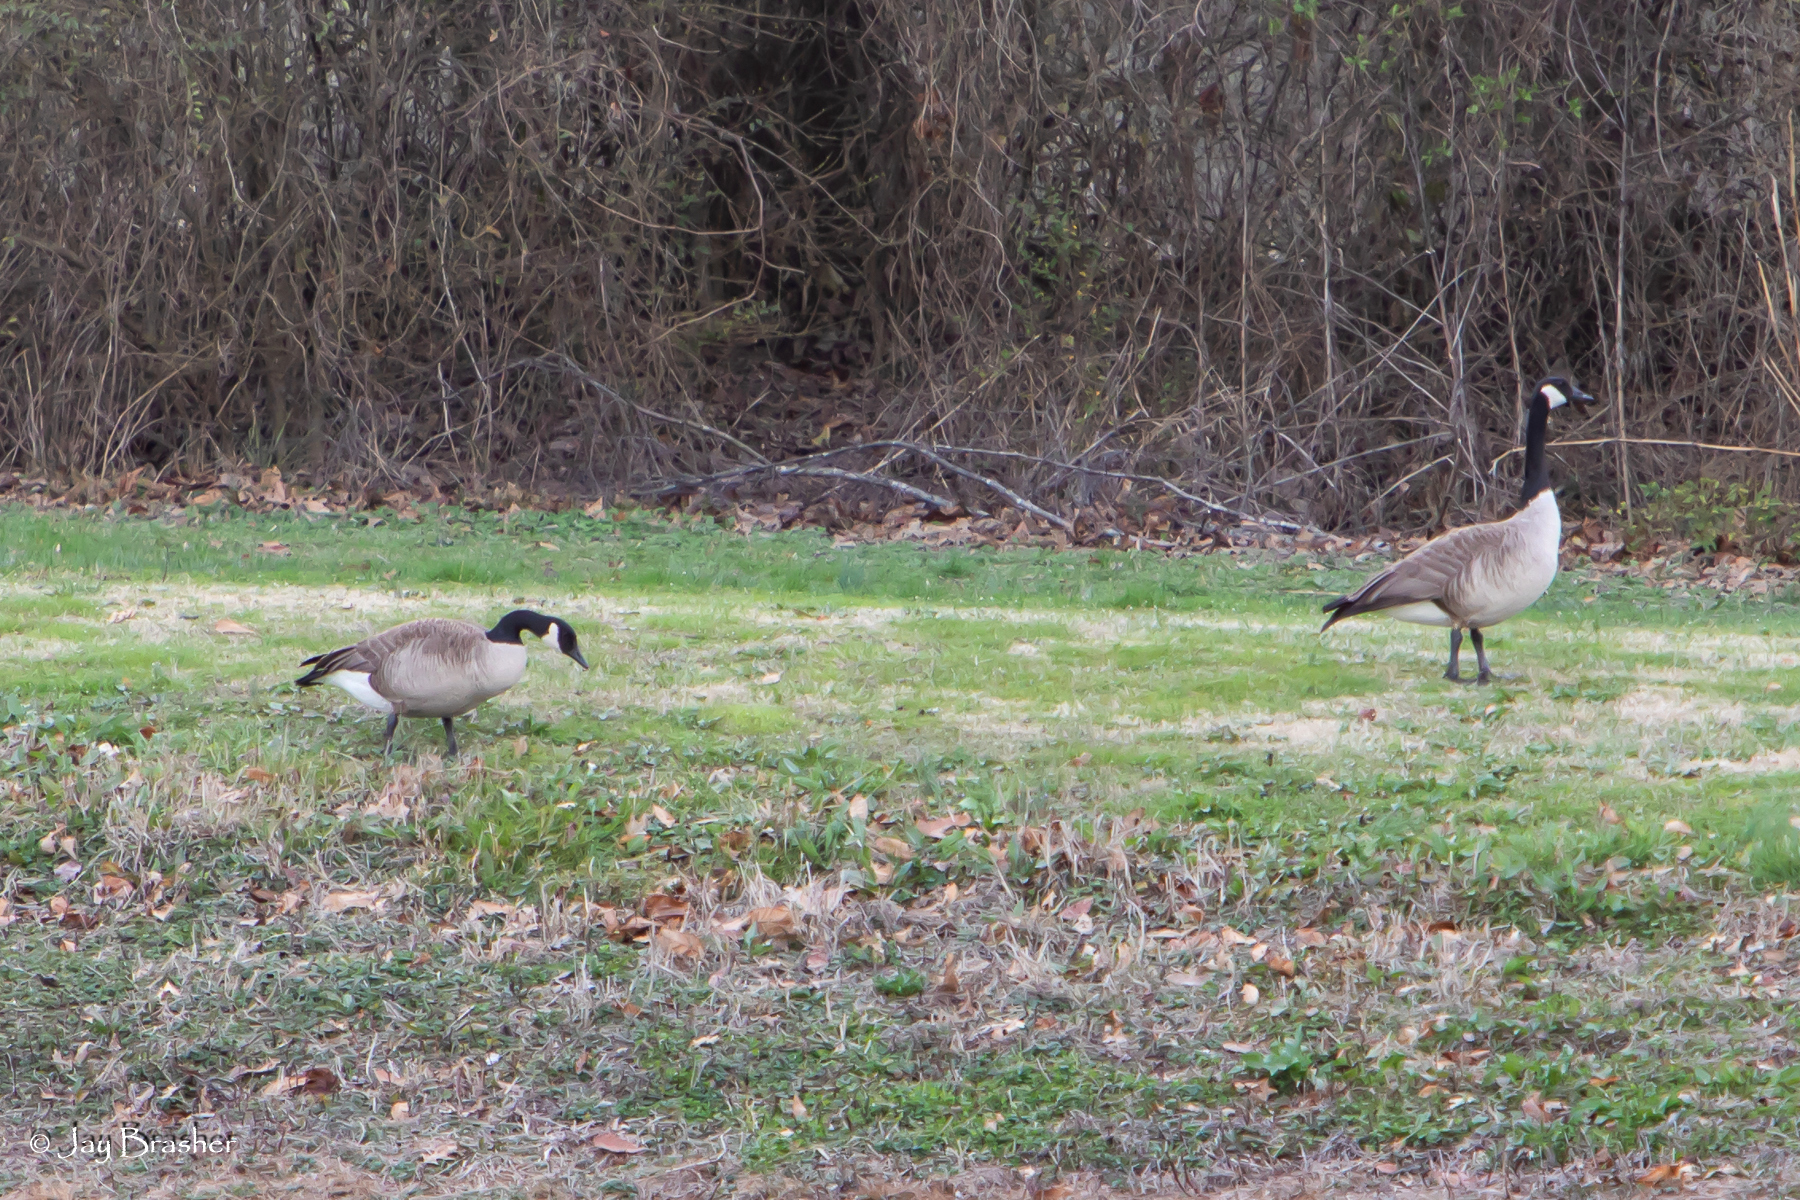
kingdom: Animalia
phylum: Chordata
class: Aves
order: Anseriformes
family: Anatidae
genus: Branta
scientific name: Branta canadensis
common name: Canada goose
